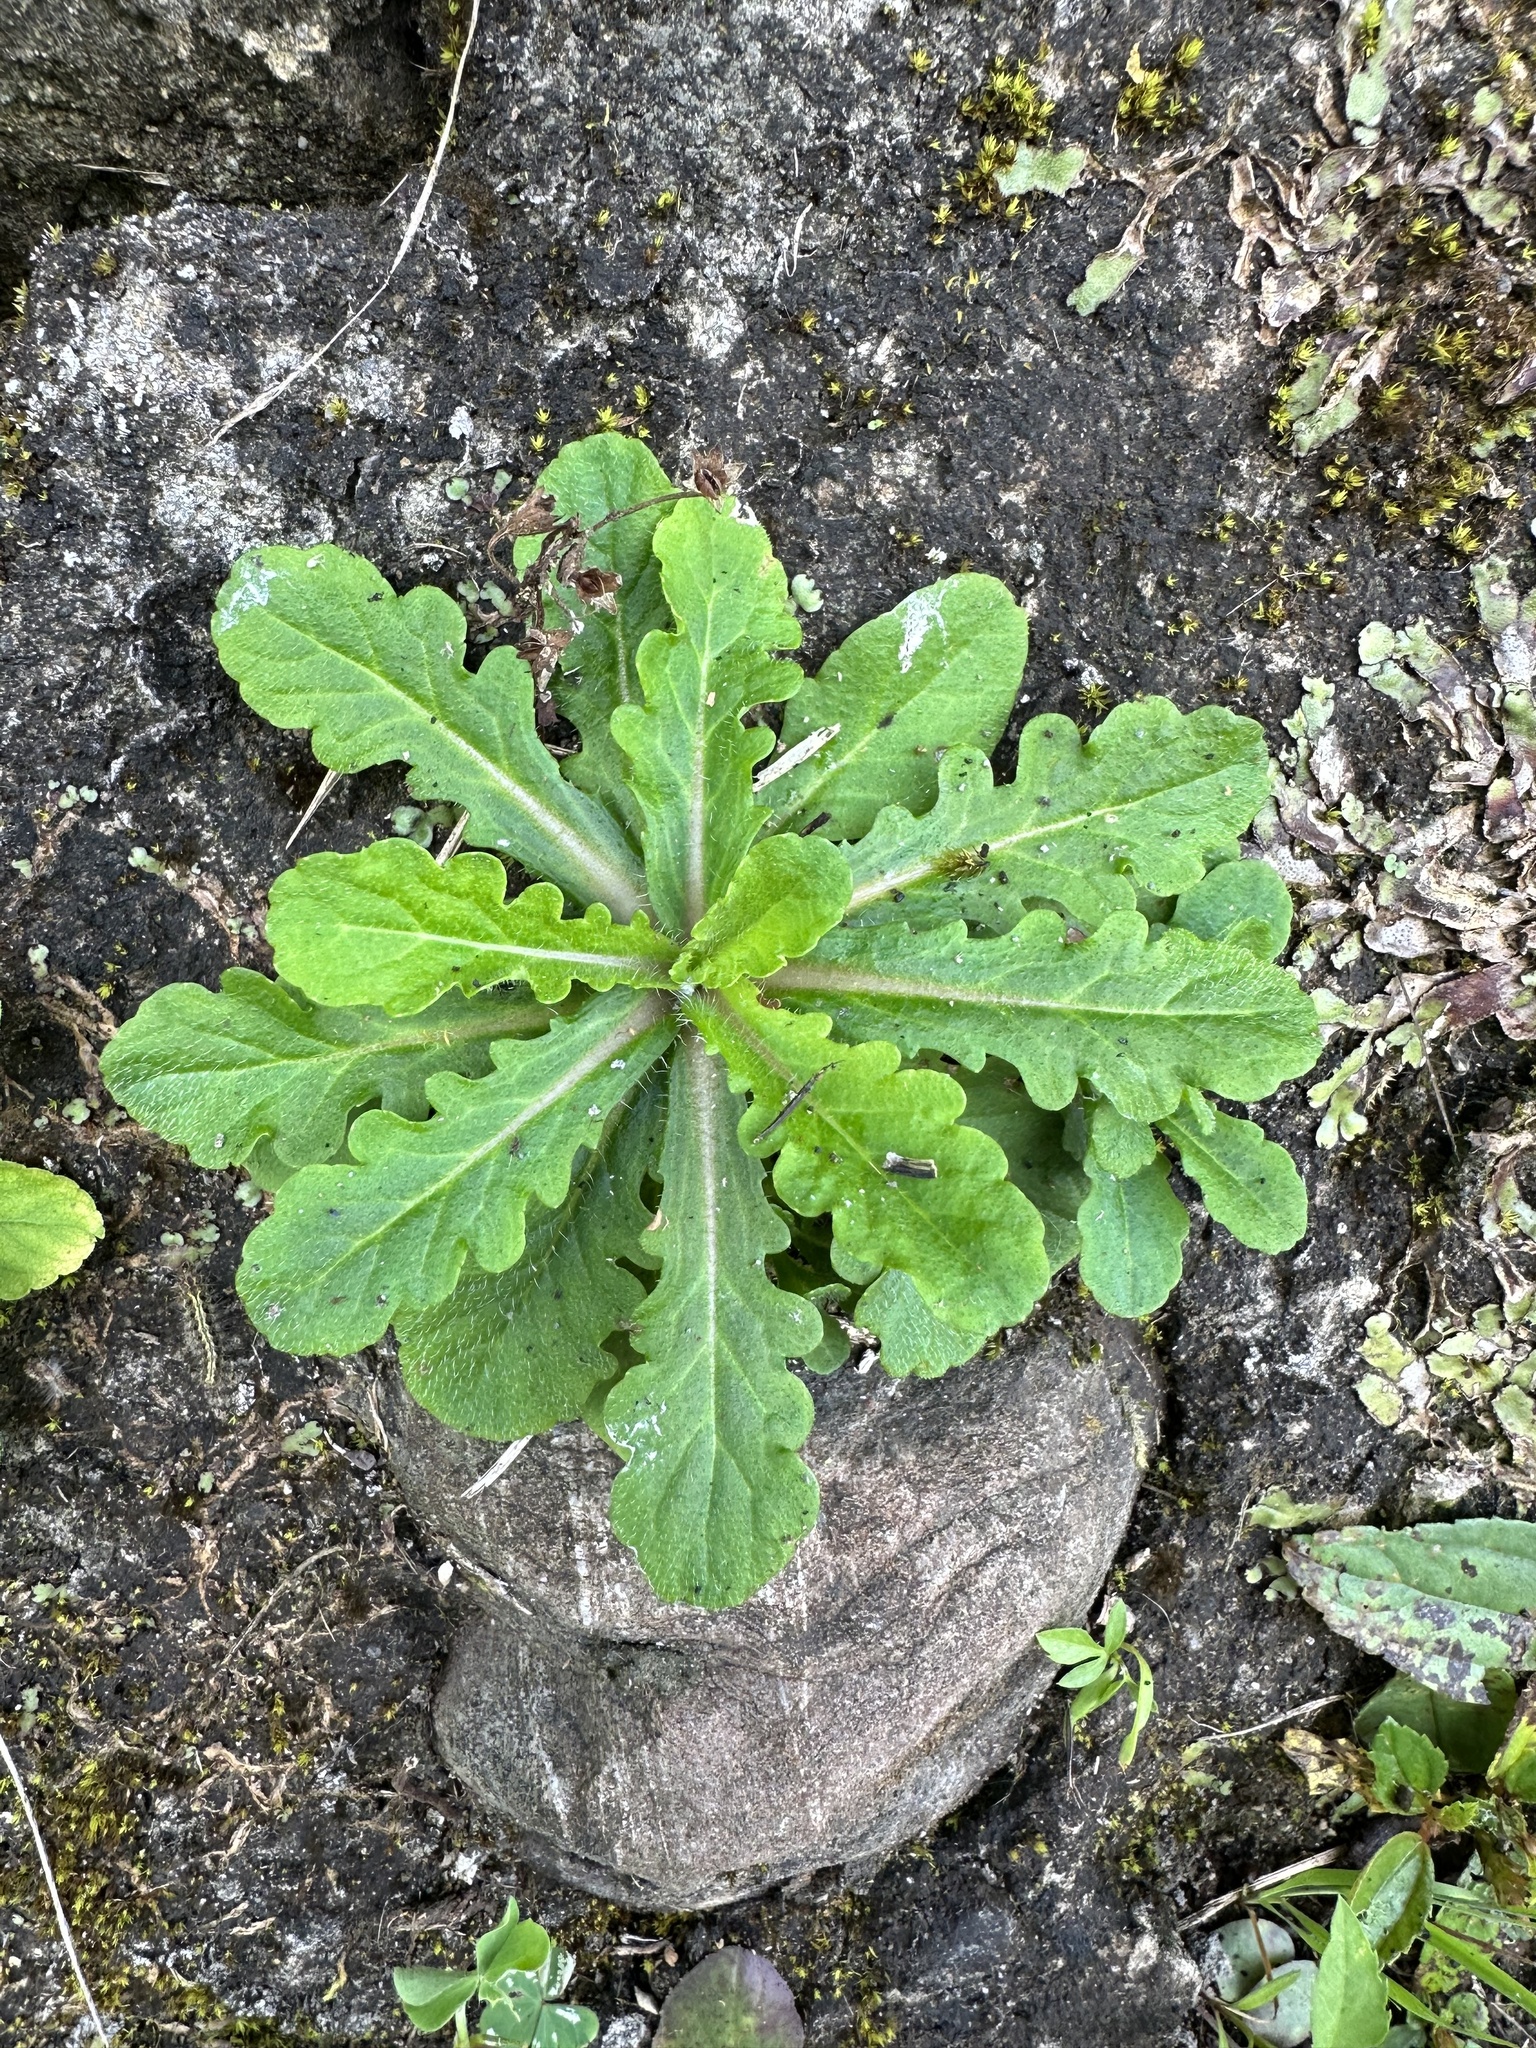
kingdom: Plantae
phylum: Tracheophyta
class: Magnoliopsida
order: Lamiales
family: Mazaceae
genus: Mazus
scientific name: Mazus fauriei
